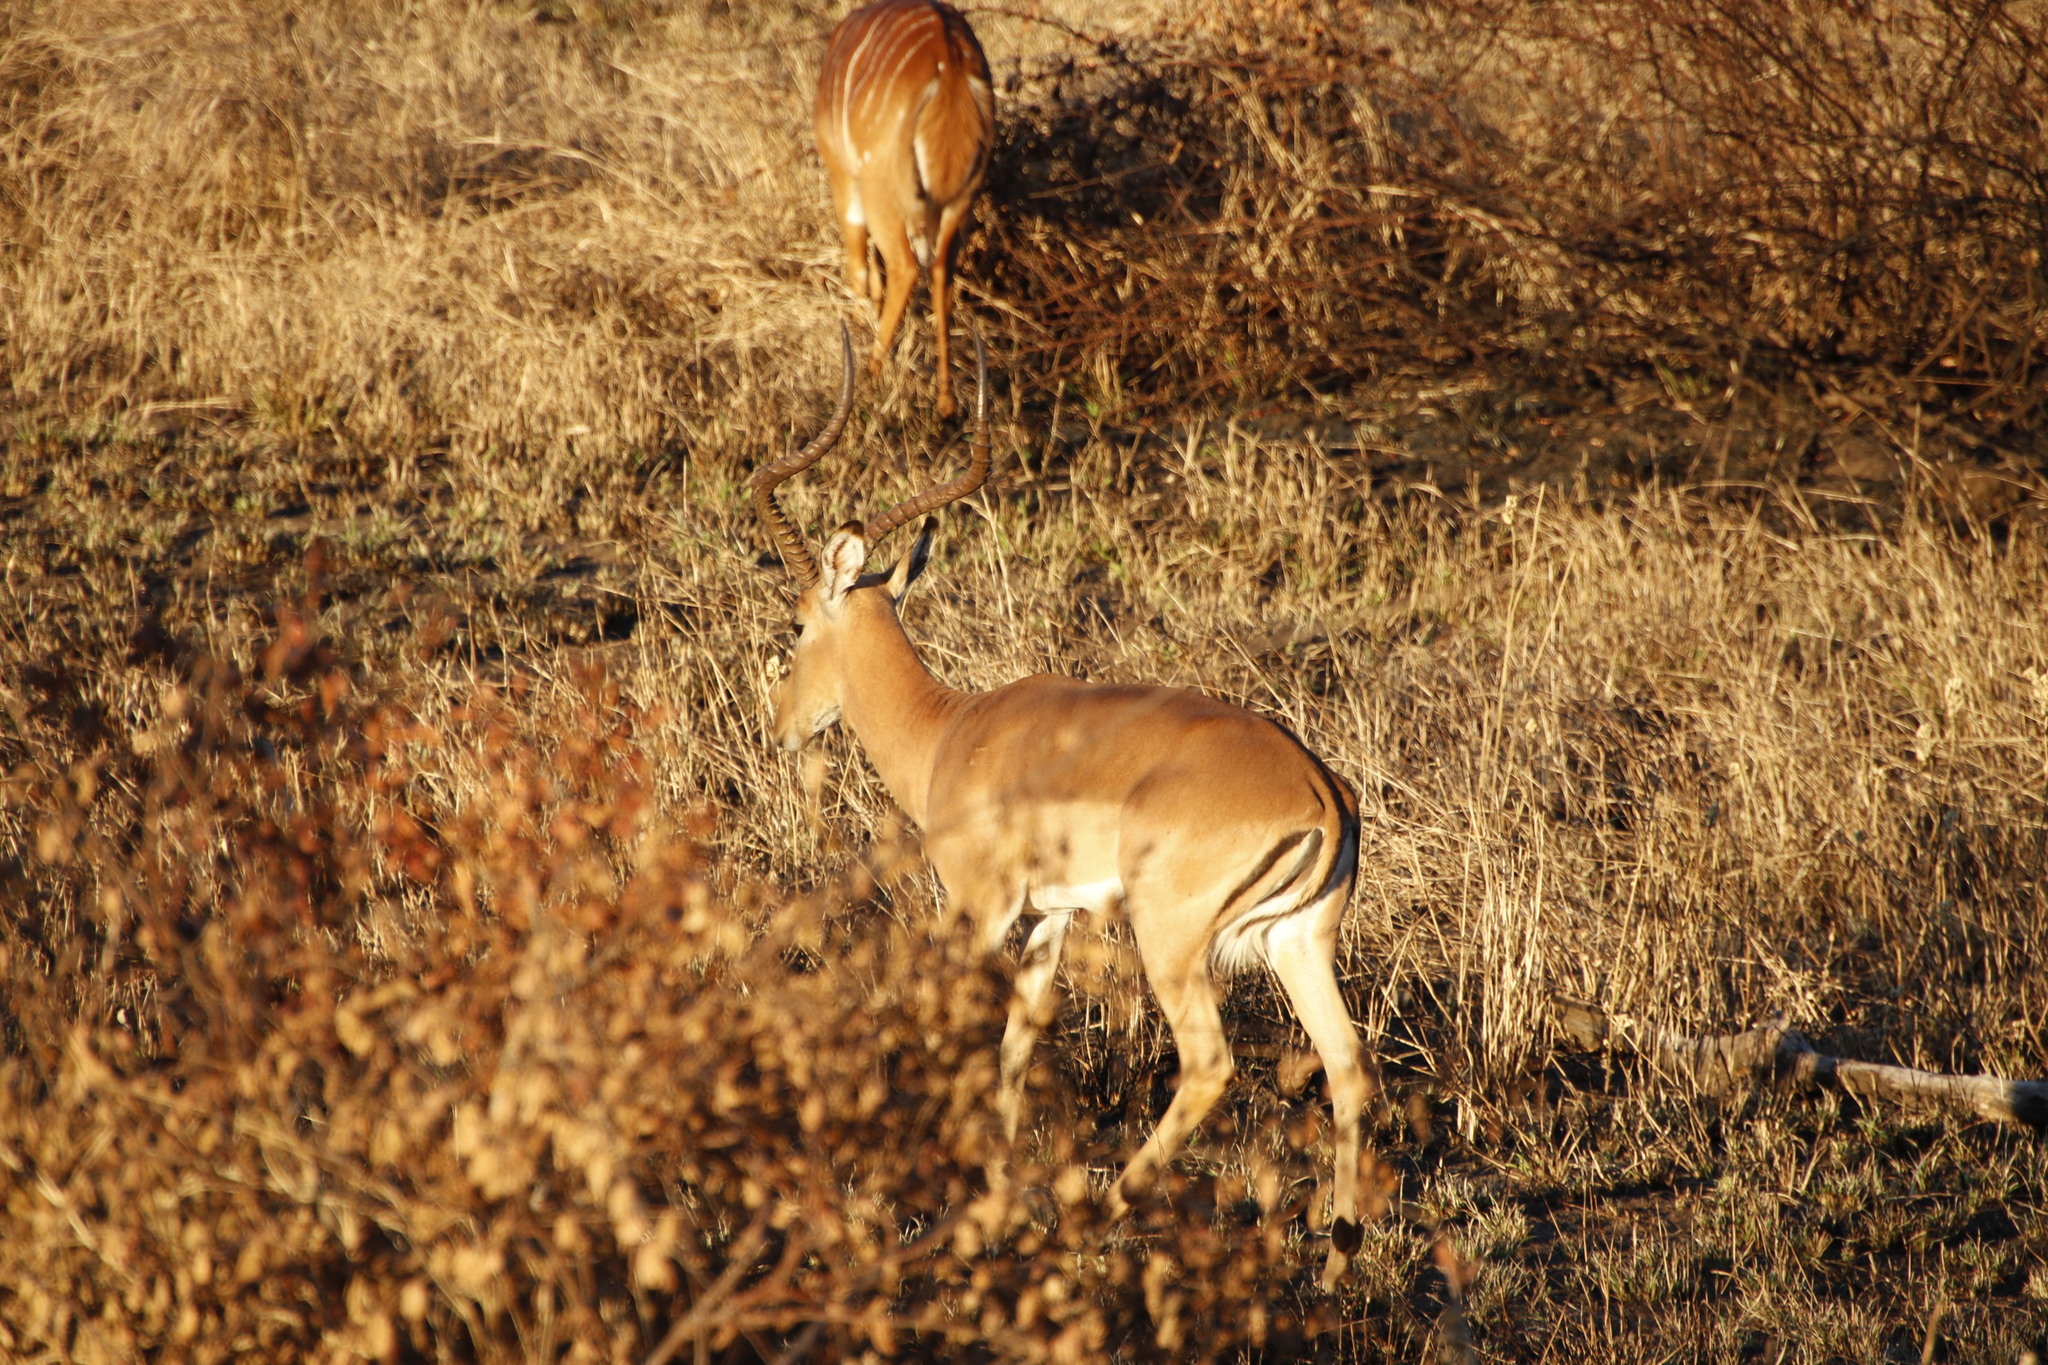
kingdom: Animalia
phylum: Chordata
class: Mammalia
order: Artiodactyla
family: Bovidae
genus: Aepyceros
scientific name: Aepyceros melampus
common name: Impala
